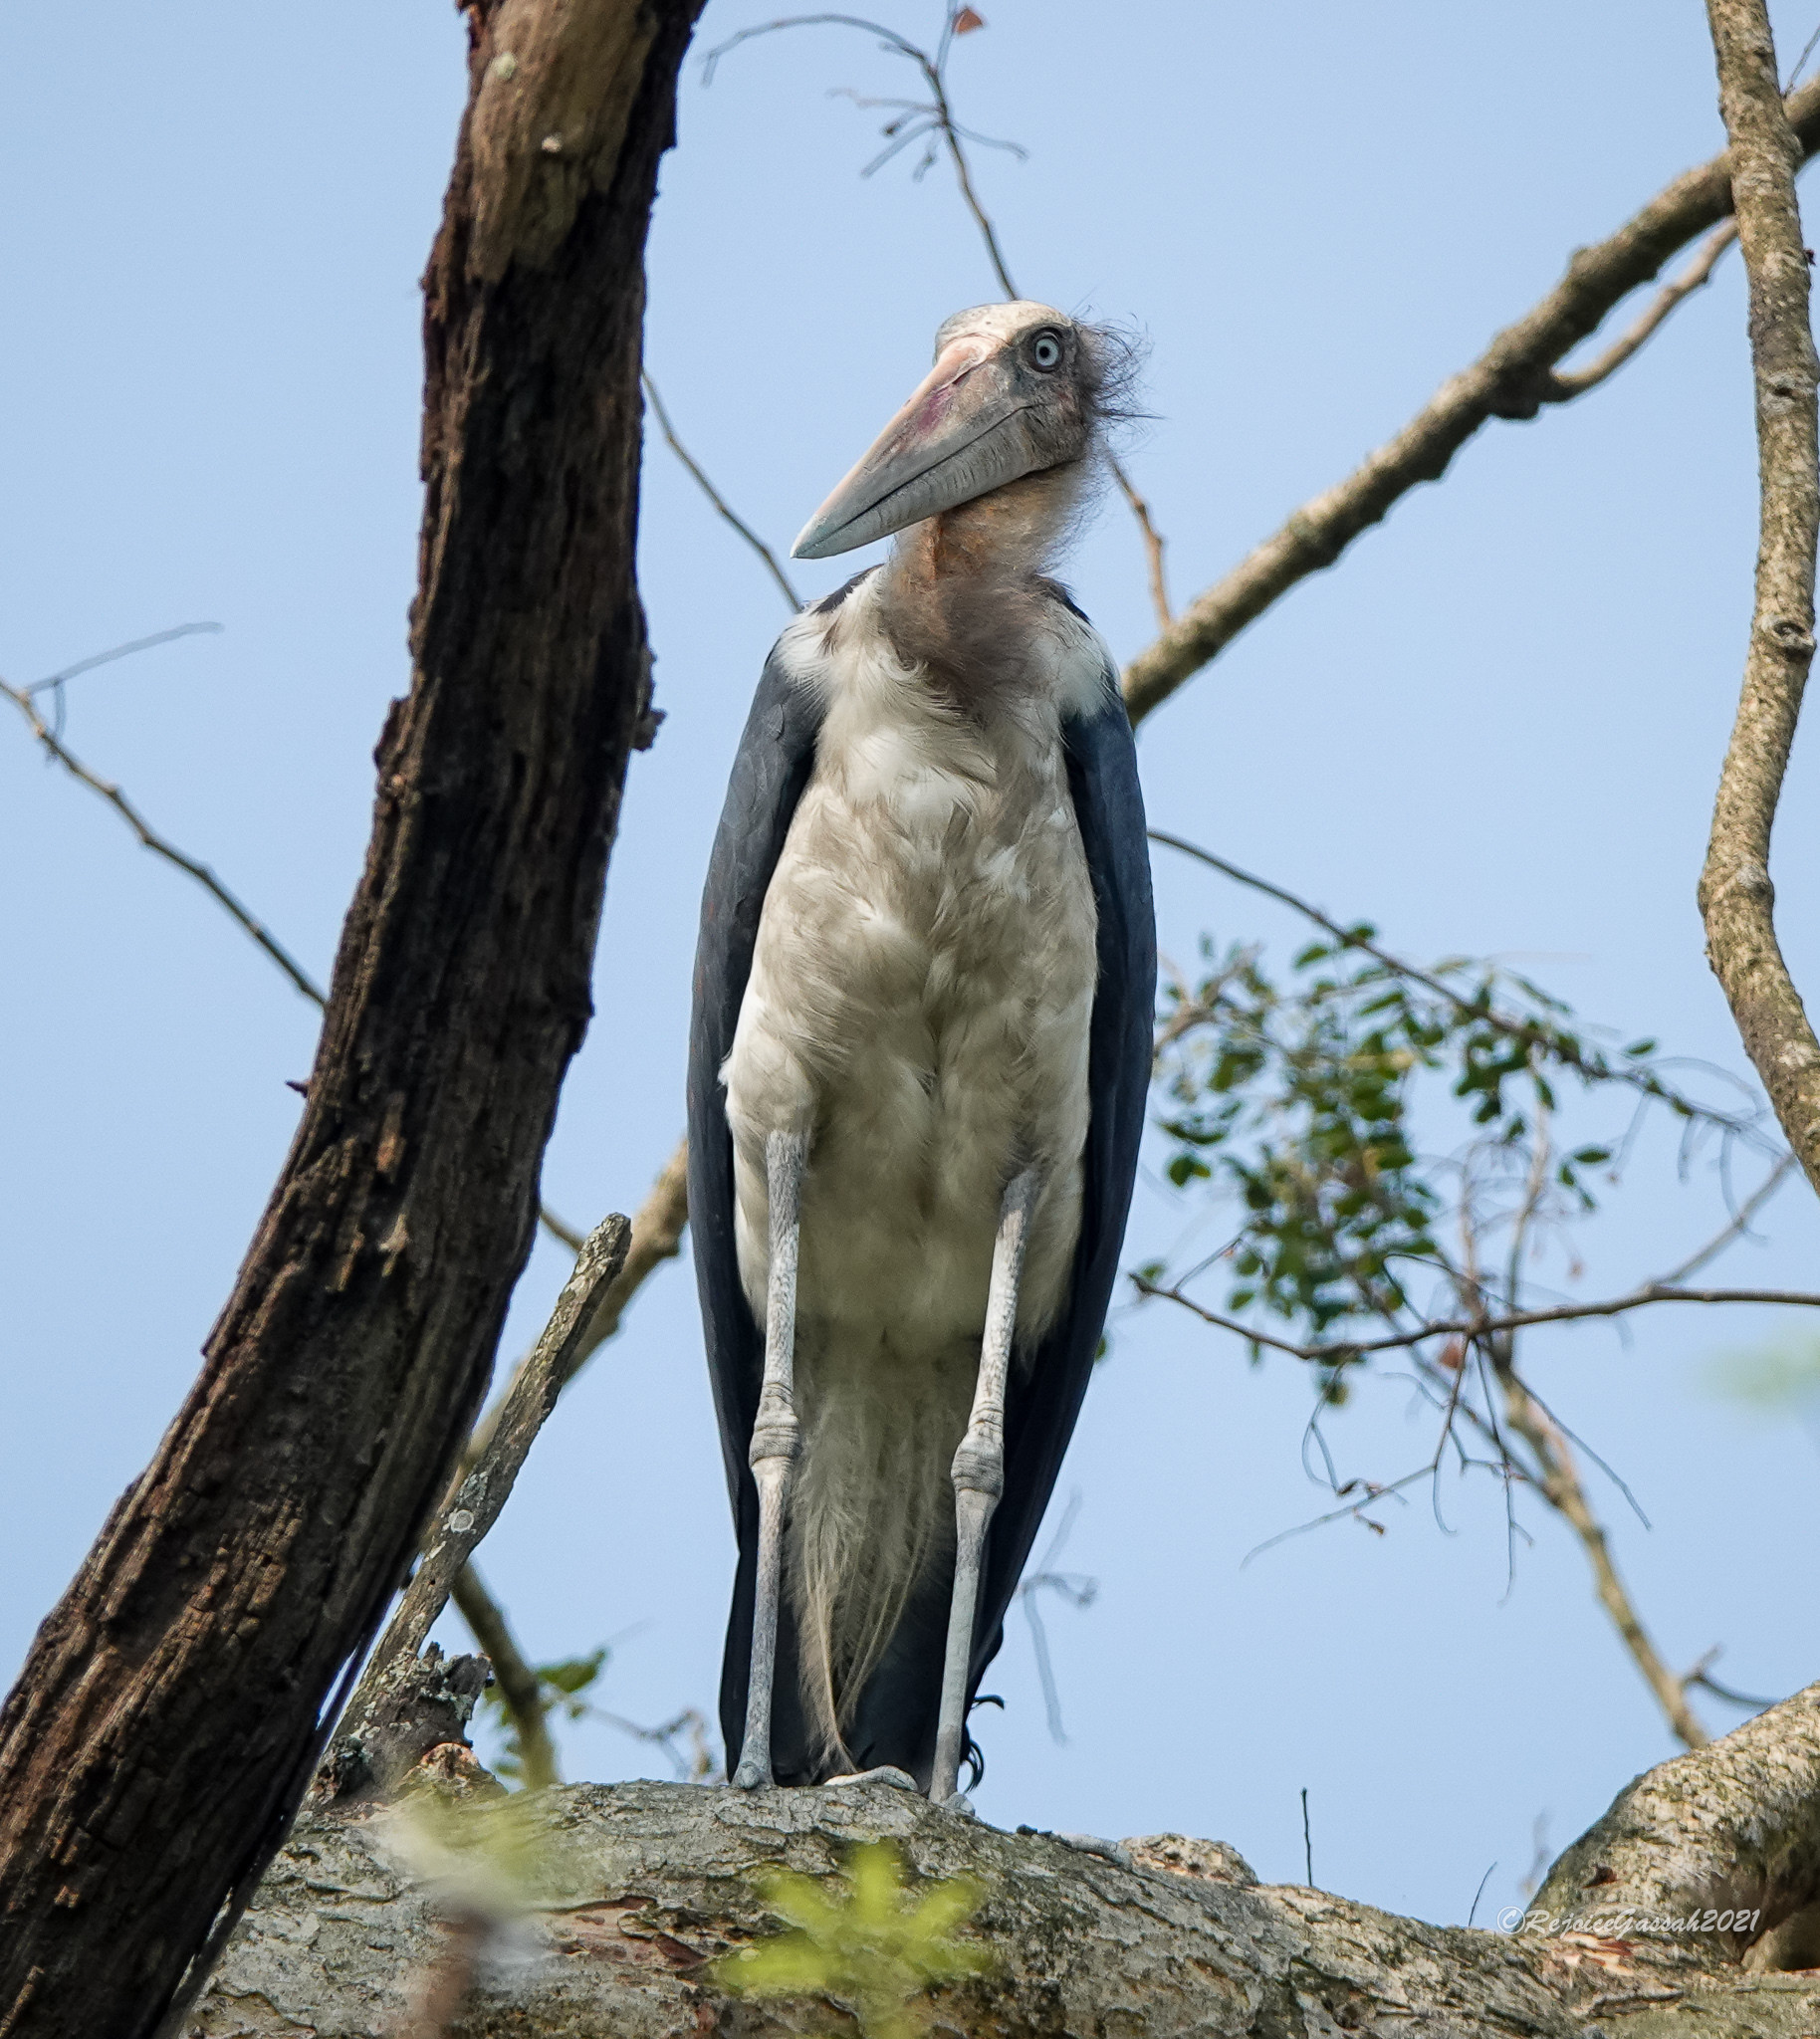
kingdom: Animalia
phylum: Chordata
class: Aves
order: Ciconiiformes
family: Ciconiidae
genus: Leptoptilos
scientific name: Leptoptilos javanicus
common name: Lesser adjutant
